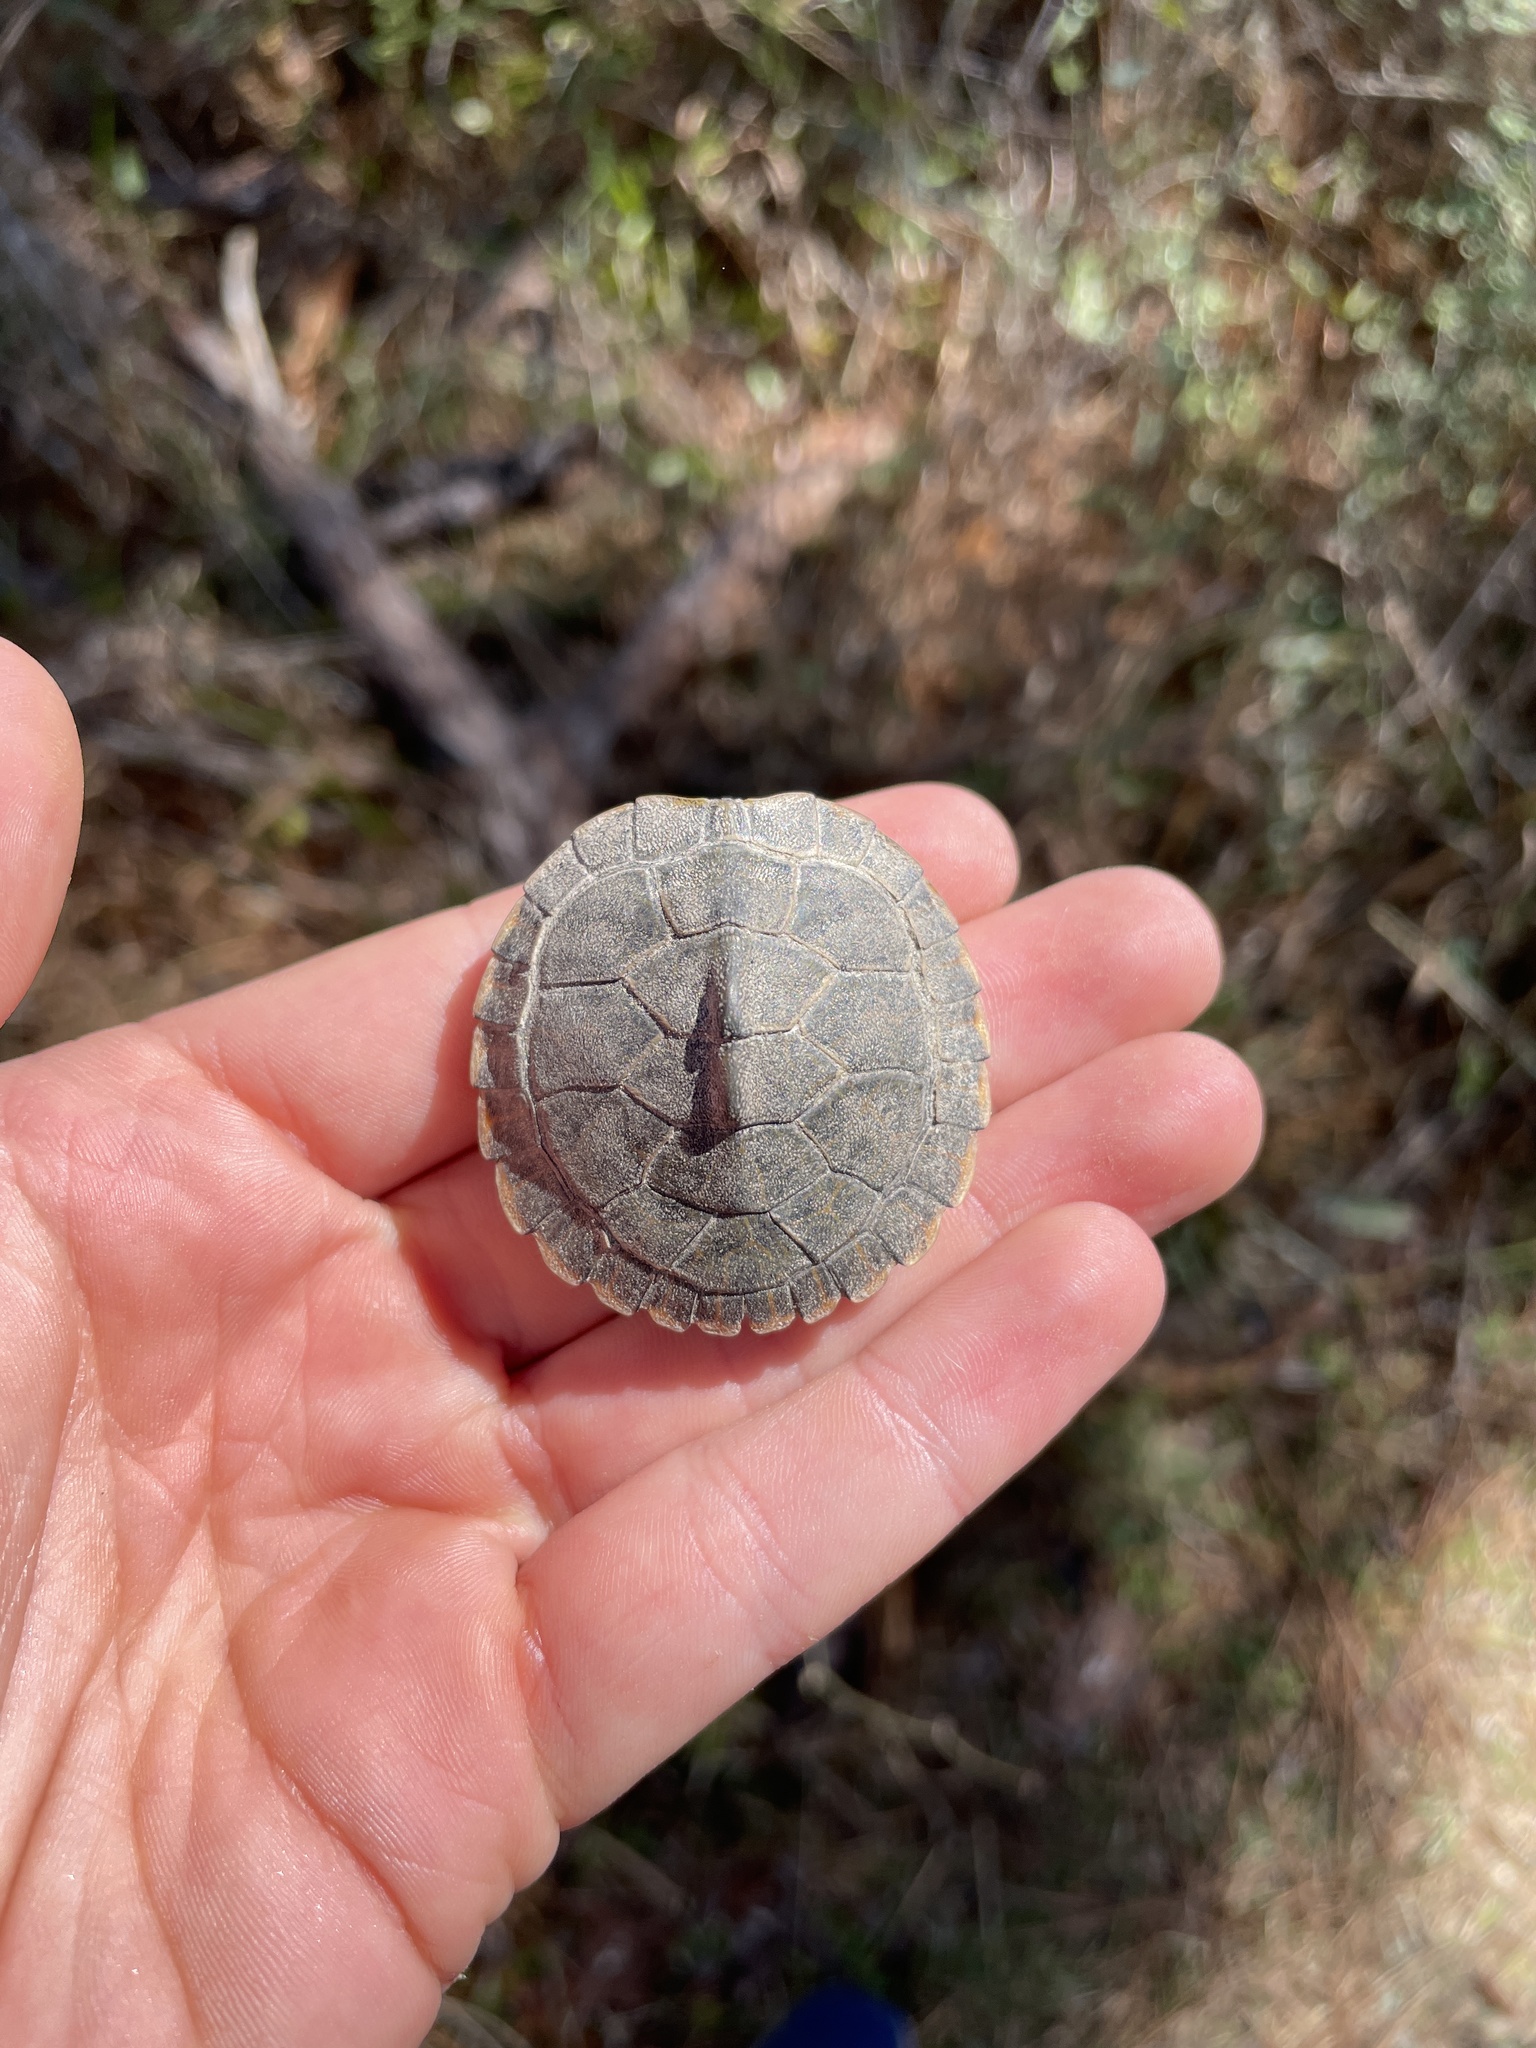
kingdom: Animalia
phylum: Chordata
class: Testudines
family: Emydidae
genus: Pseudemys
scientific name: Pseudemys concinna
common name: Eastern river cooter
